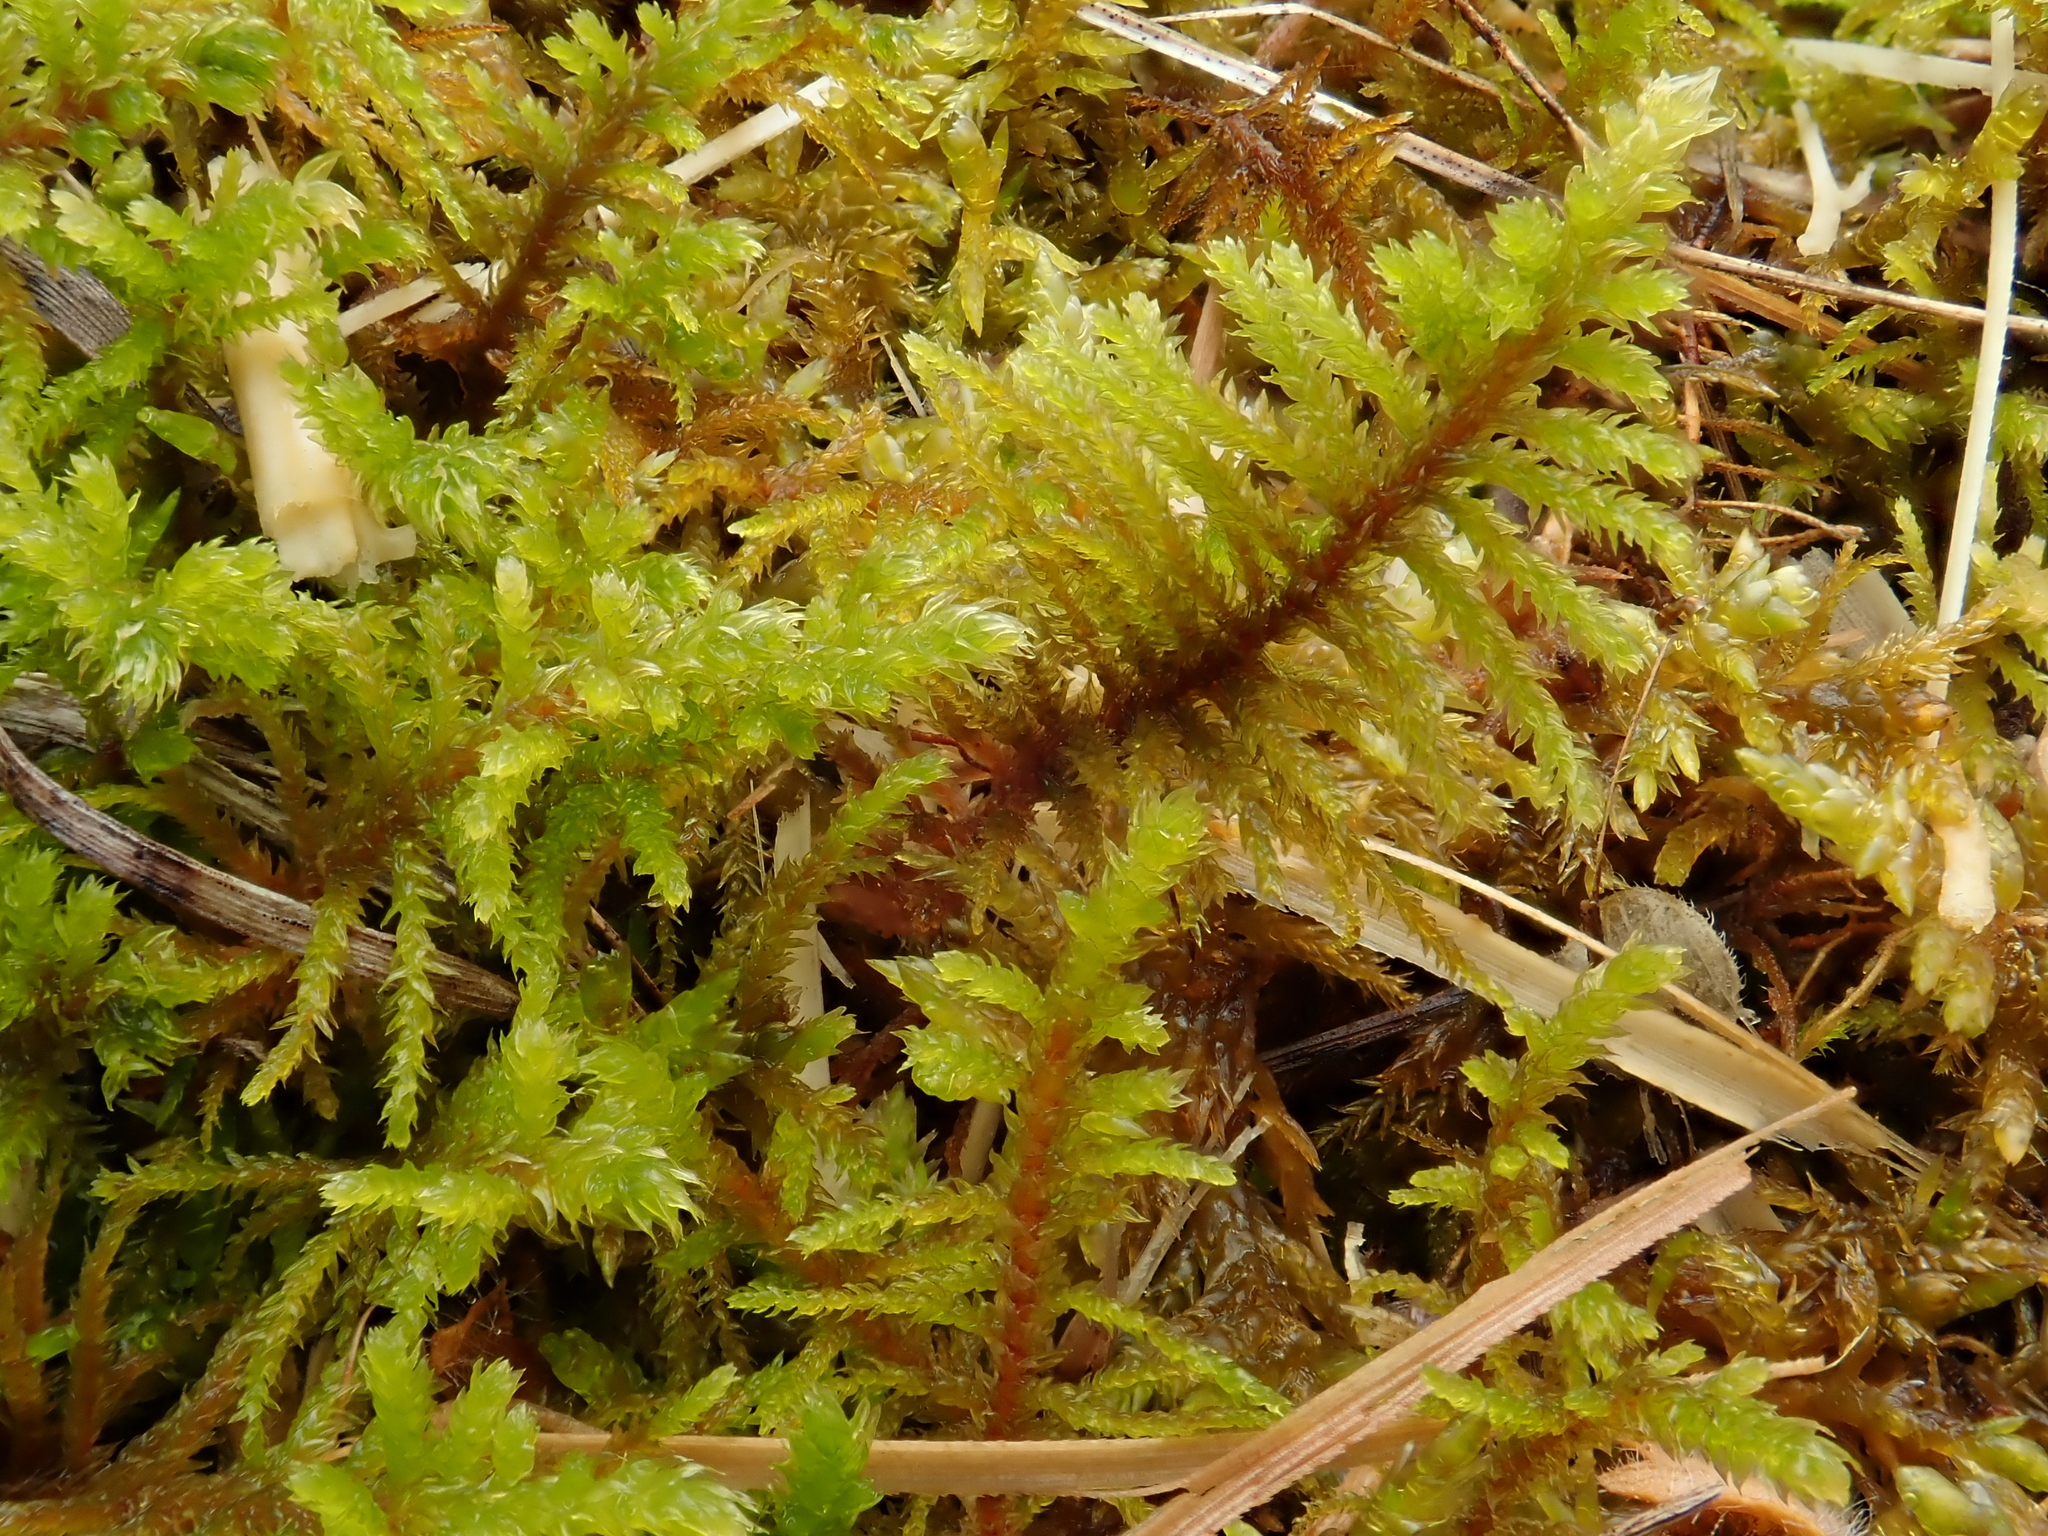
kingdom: Plantae
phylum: Bryophyta
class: Bryopsida
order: Hypnales
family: Thuidiaceae
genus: Abietinella
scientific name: Abietinella abietina
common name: Wiry fern moss
